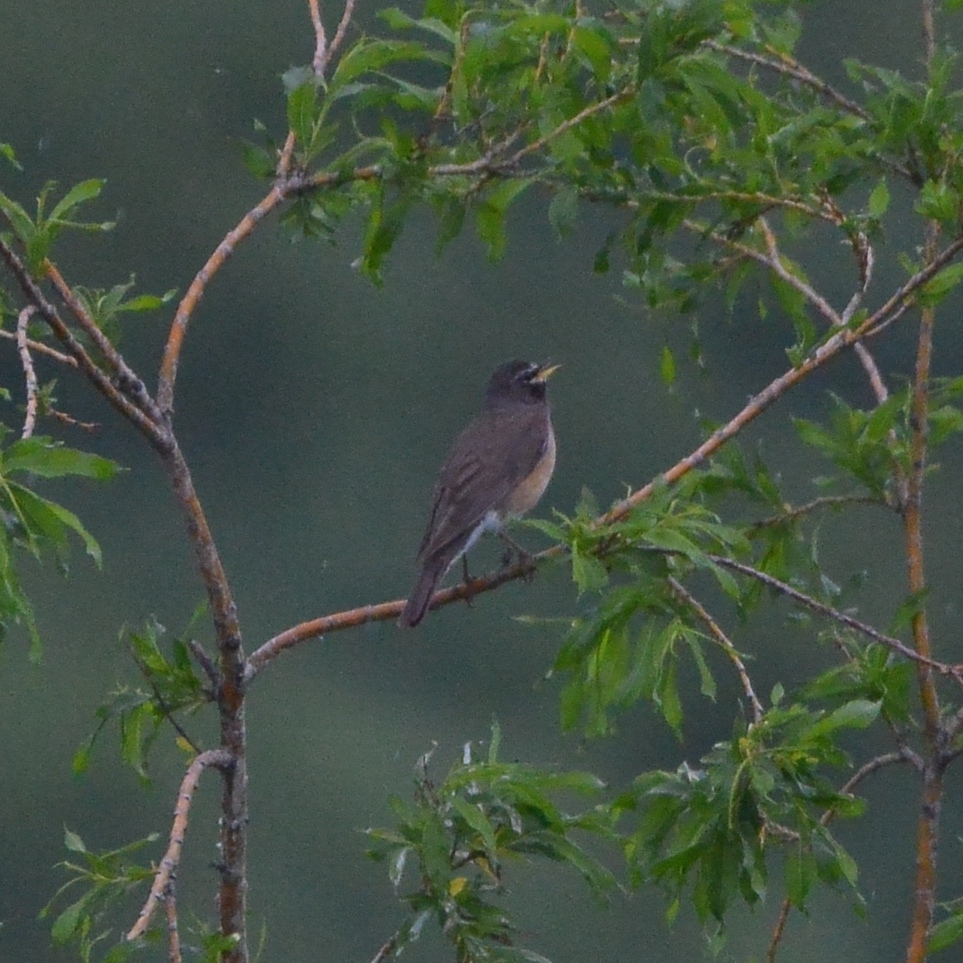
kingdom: Animalia
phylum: Chordata
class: Aves
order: Passeriformes
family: Turdidae
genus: Turdus
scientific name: Turdus obscurus
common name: Eyebrowed thrush
